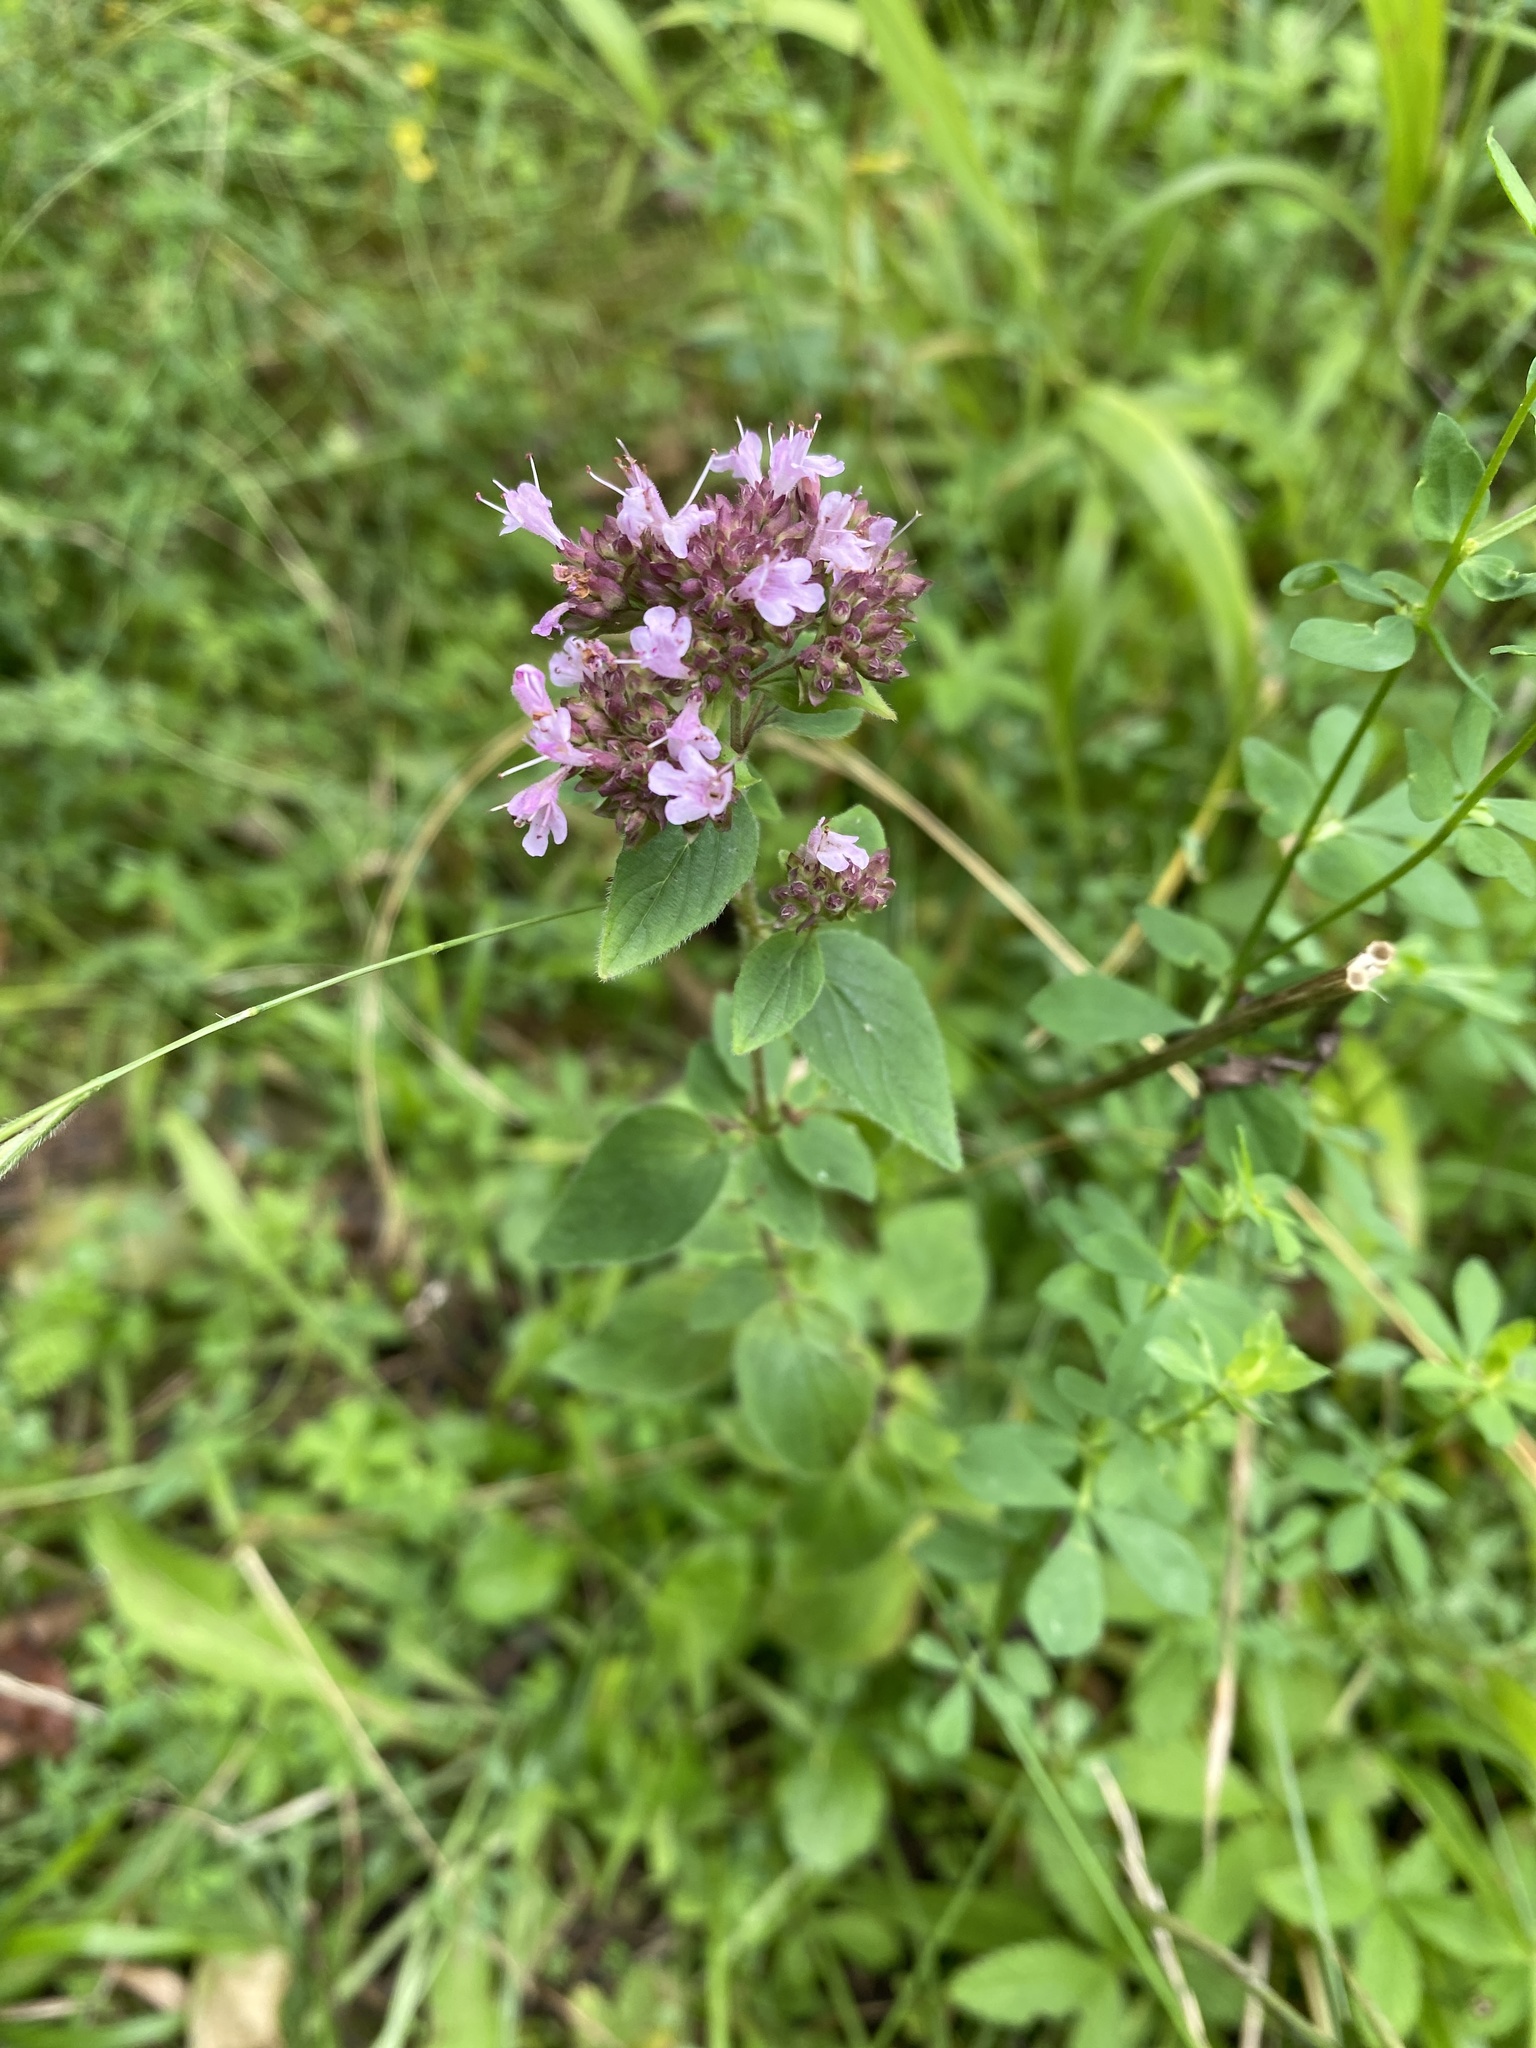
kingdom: Plantae
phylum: Tracheophyta
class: Magnoliopsida
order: Lamiales
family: Lamiaceae
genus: Origanum
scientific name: Origanum vulgare
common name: Wild marjoram
